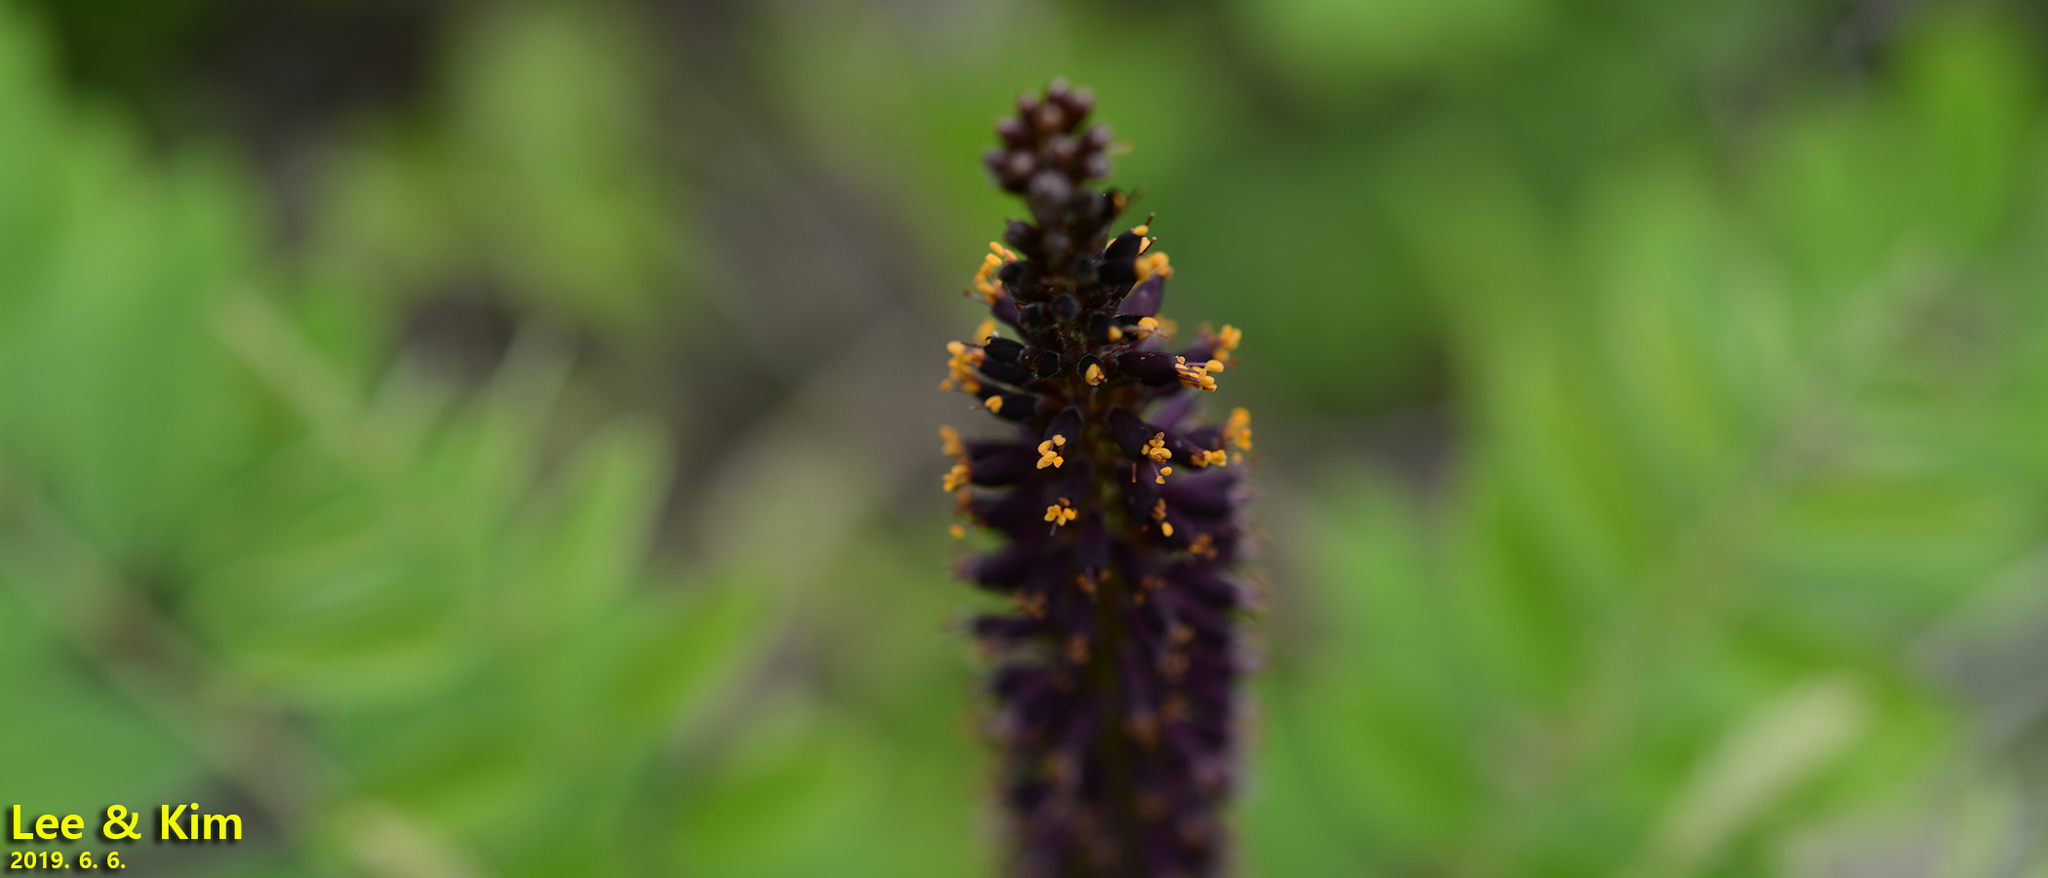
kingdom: Plantae
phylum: Tracheophyta
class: Magnoliopsida
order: Fabales
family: Fabaceae
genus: Amorpha
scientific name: Amorpha fruticosa
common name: False indigo
